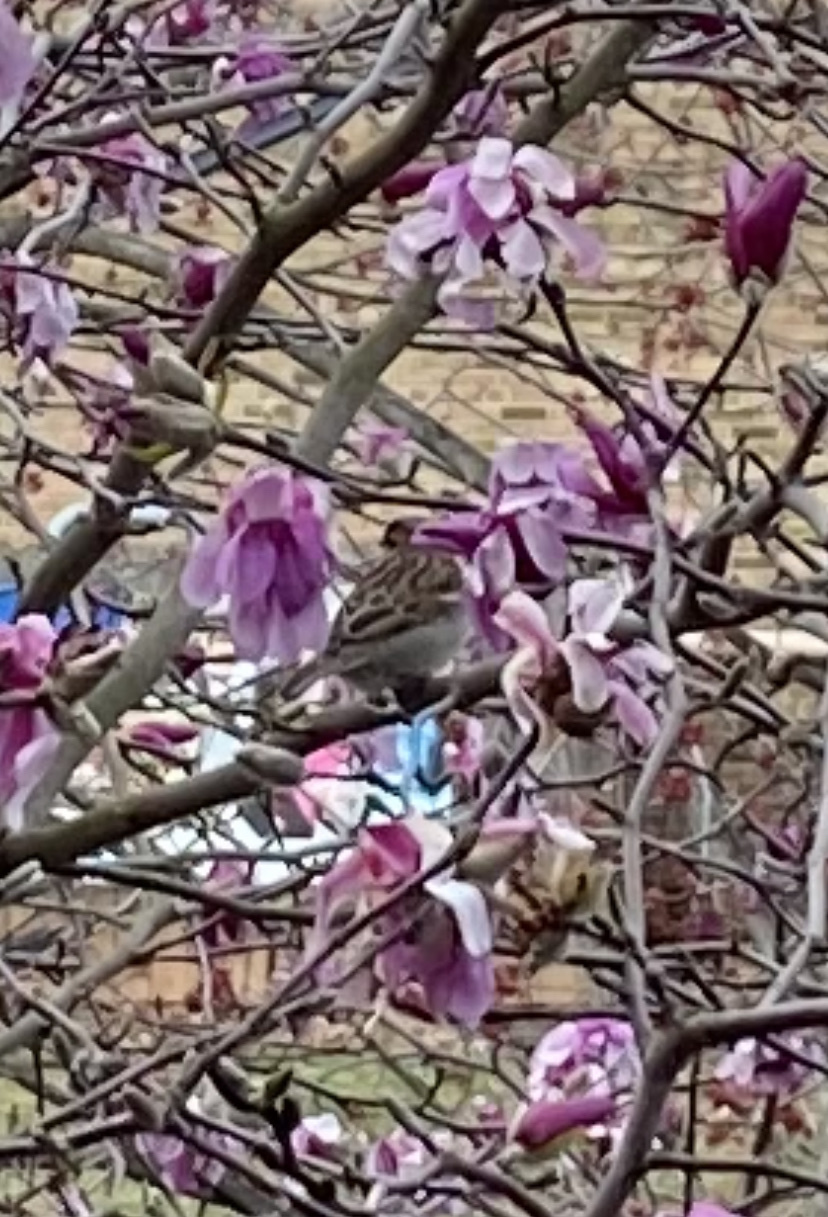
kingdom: Animalia
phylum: Chordata
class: Aves
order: Passeriformes
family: Passeridae
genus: Passer
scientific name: Passer domesticus
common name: House sparrow
